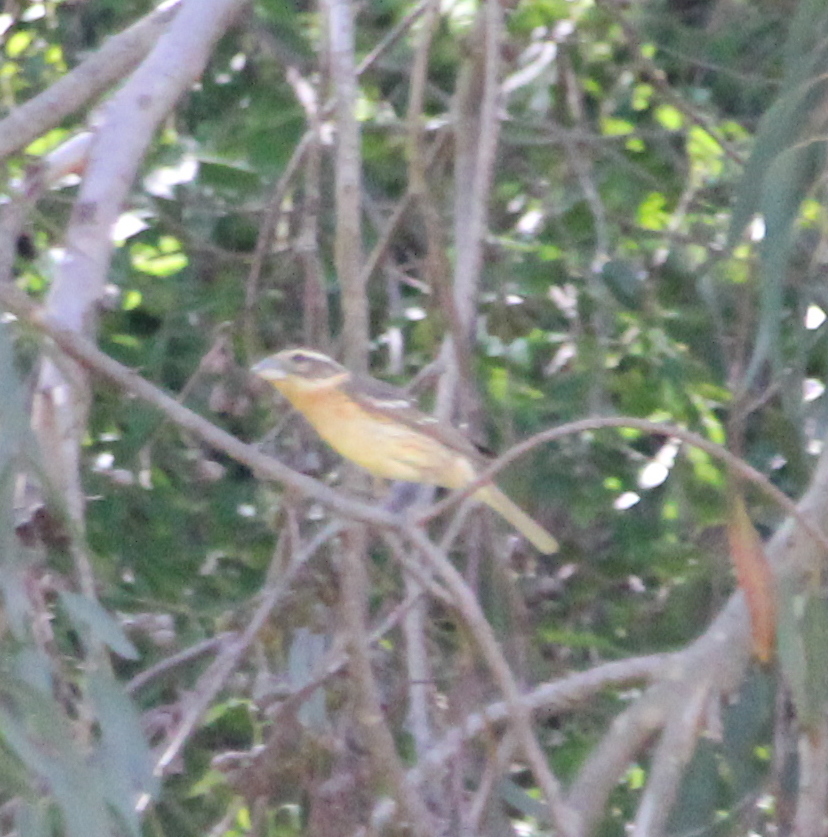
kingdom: Animalia
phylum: Chordata
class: Aves
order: Passeriformes
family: Cardinalidae
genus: Pheucticus
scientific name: Pheucticus melanocephalus
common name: Black-headed grosbeak
